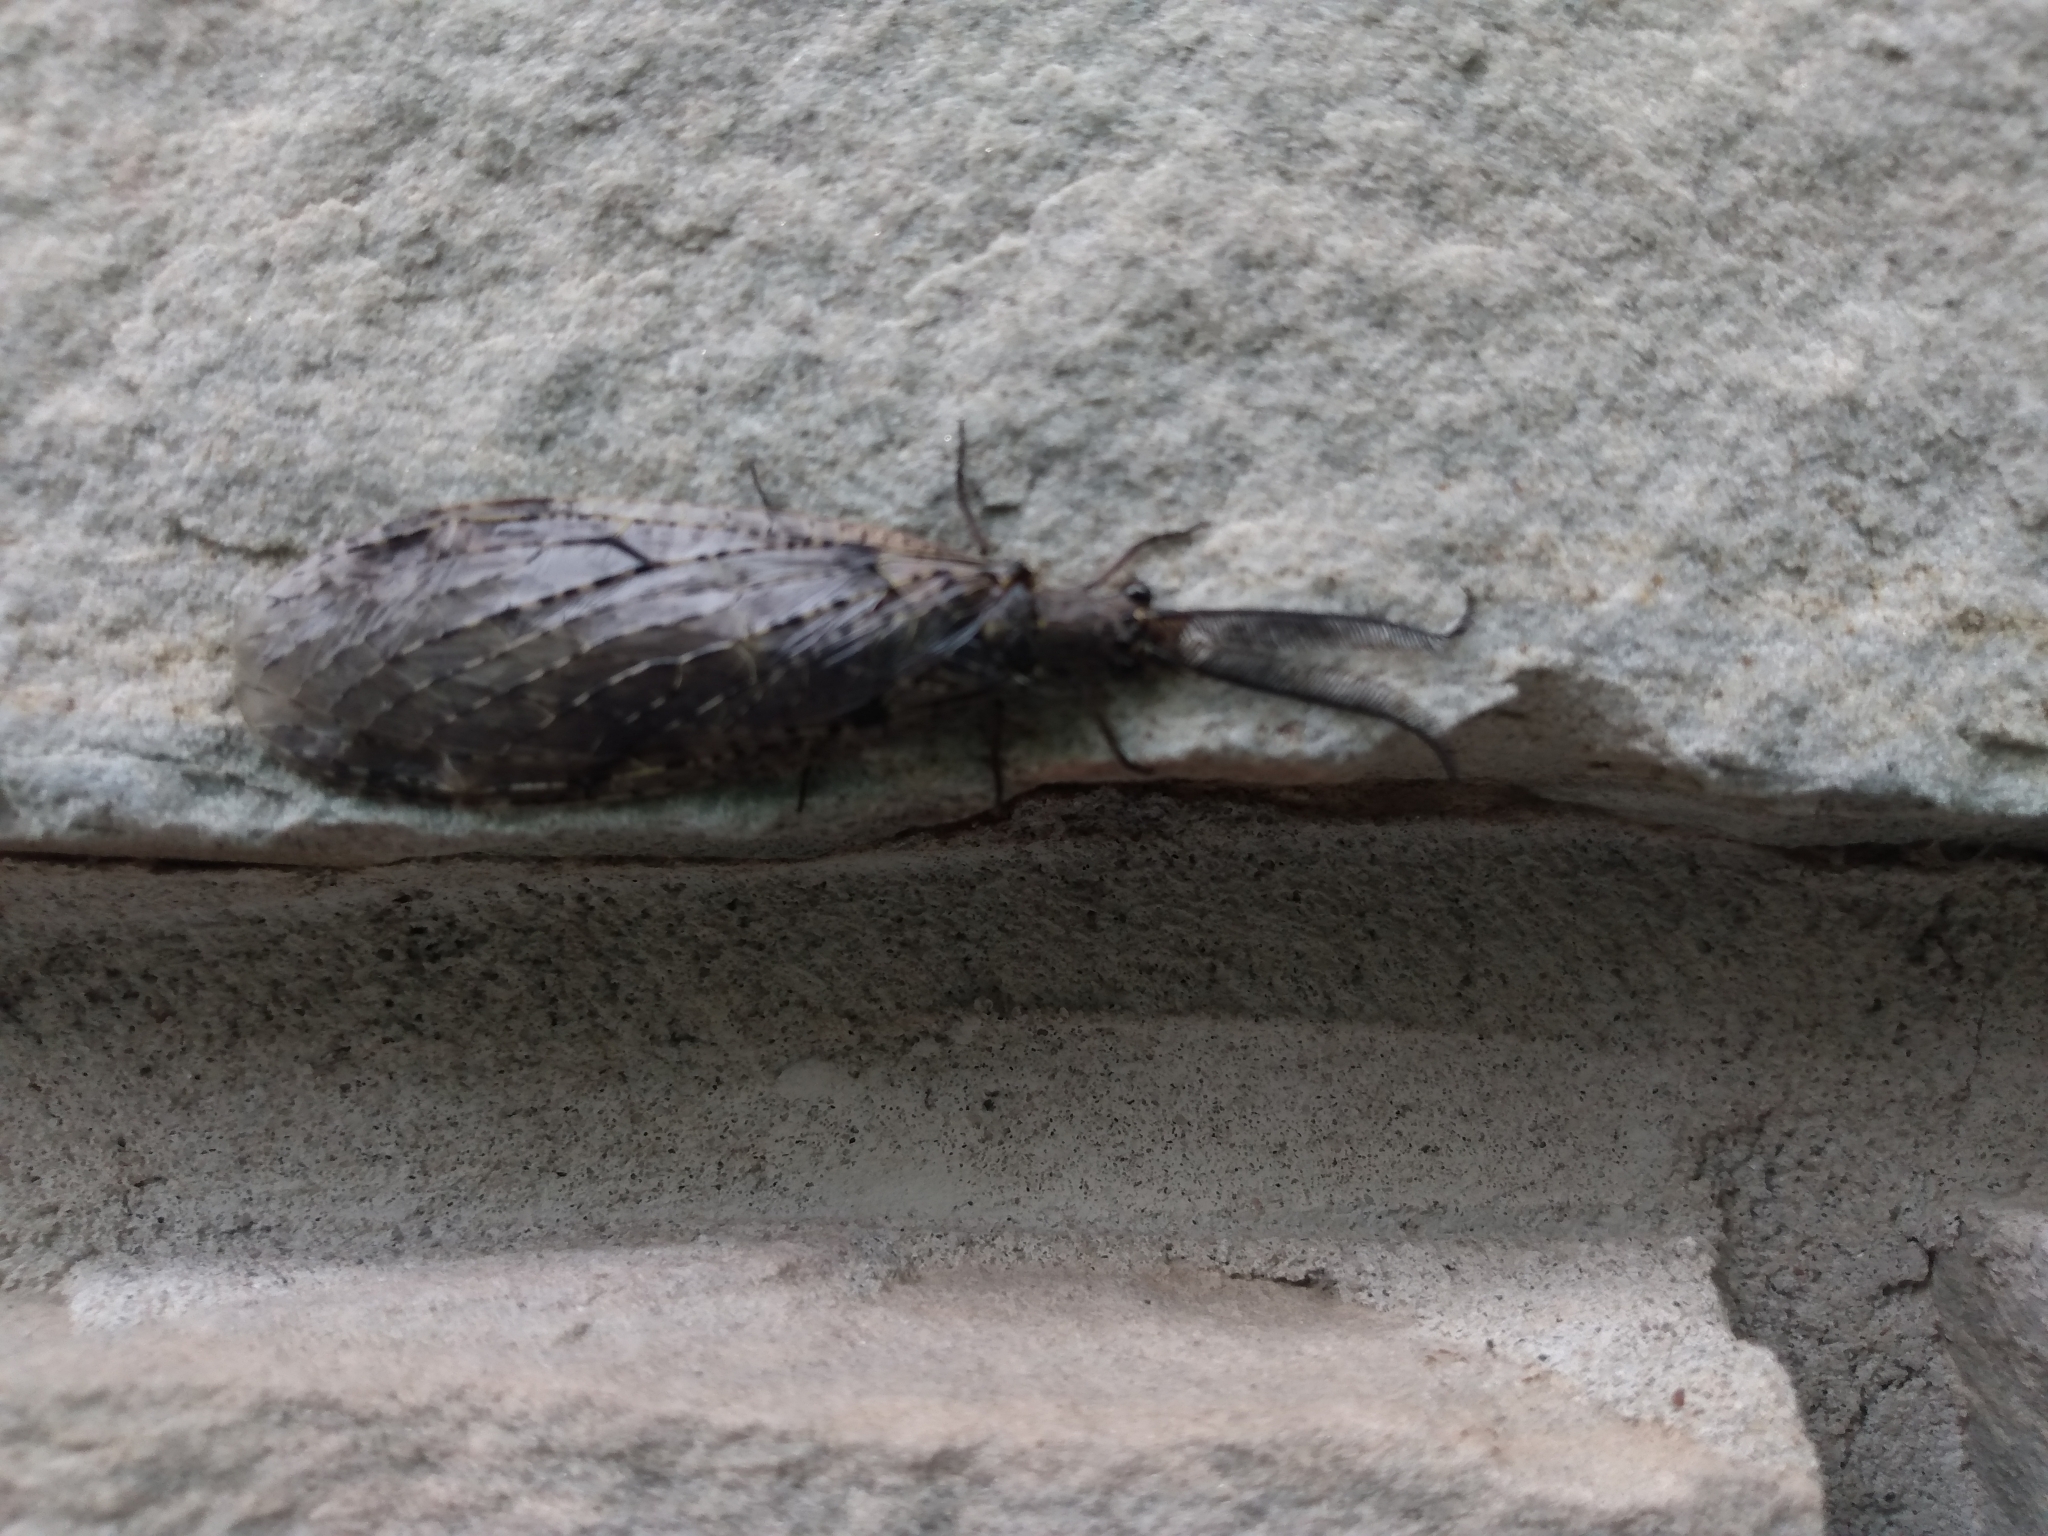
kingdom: Animalia
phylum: Arthropoda
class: Insecta
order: Megaloptera
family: Corydalidae
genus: Chauliodes
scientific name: Chauliodes rastricornis
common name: Spring fishfly
